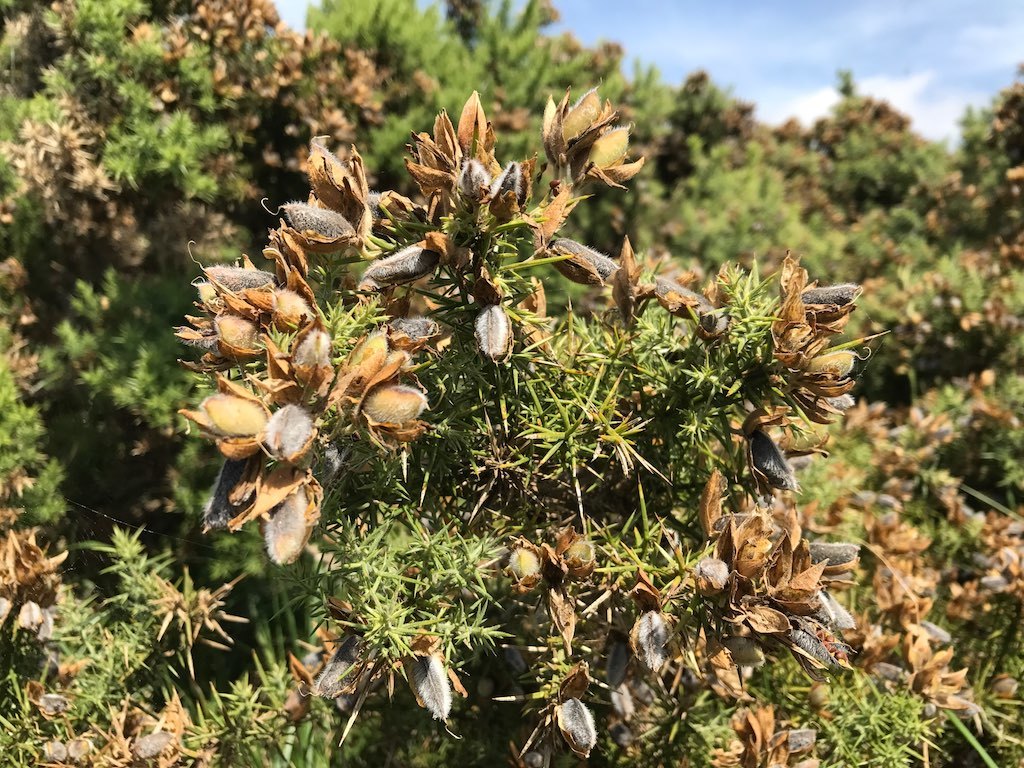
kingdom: Plantae
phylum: Tracheophyta
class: Magnoliopsida
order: Fabales
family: Fabaceae
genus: Ulex
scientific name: Ulex europaeus
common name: Common gorse
